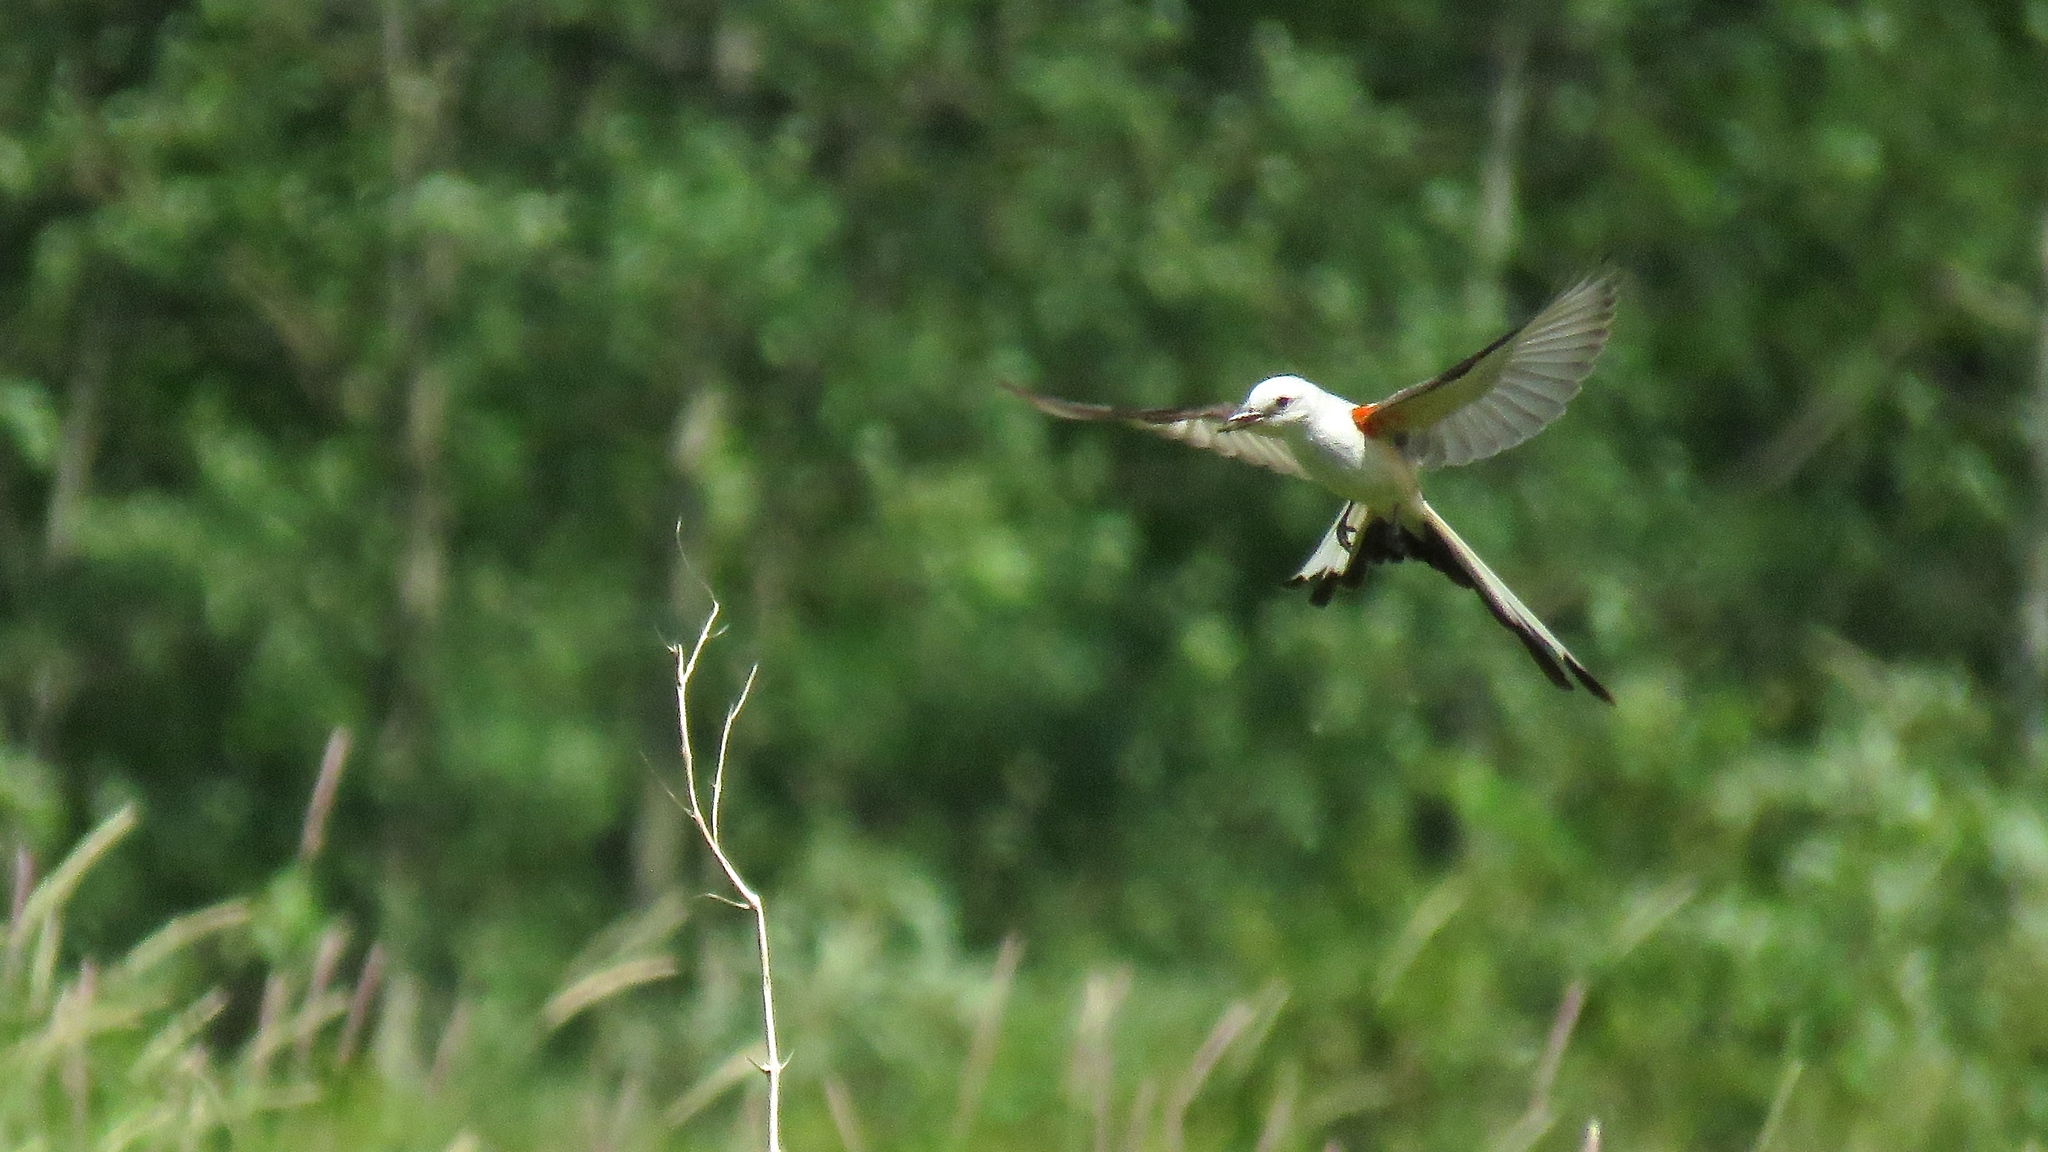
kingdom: Animalia
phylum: Chordata
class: Aves
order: Passeriformes
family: Tyrannidae
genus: Tyrannus
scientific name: Tyrannus forficatus
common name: Scissor-tailed flycatcher
